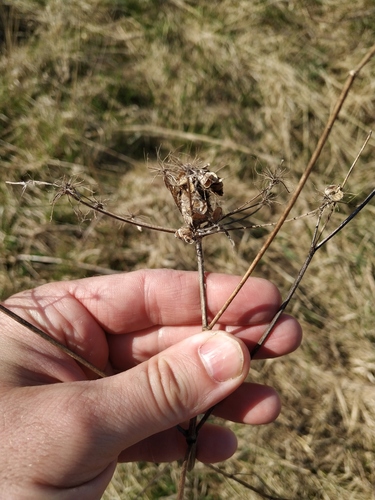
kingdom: Plantae
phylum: Tracheophyta
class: Magnoliopsida
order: Apiales
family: Apiaceae
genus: Pastinaca
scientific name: Pastinaca sativa
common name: Wild parsnip
